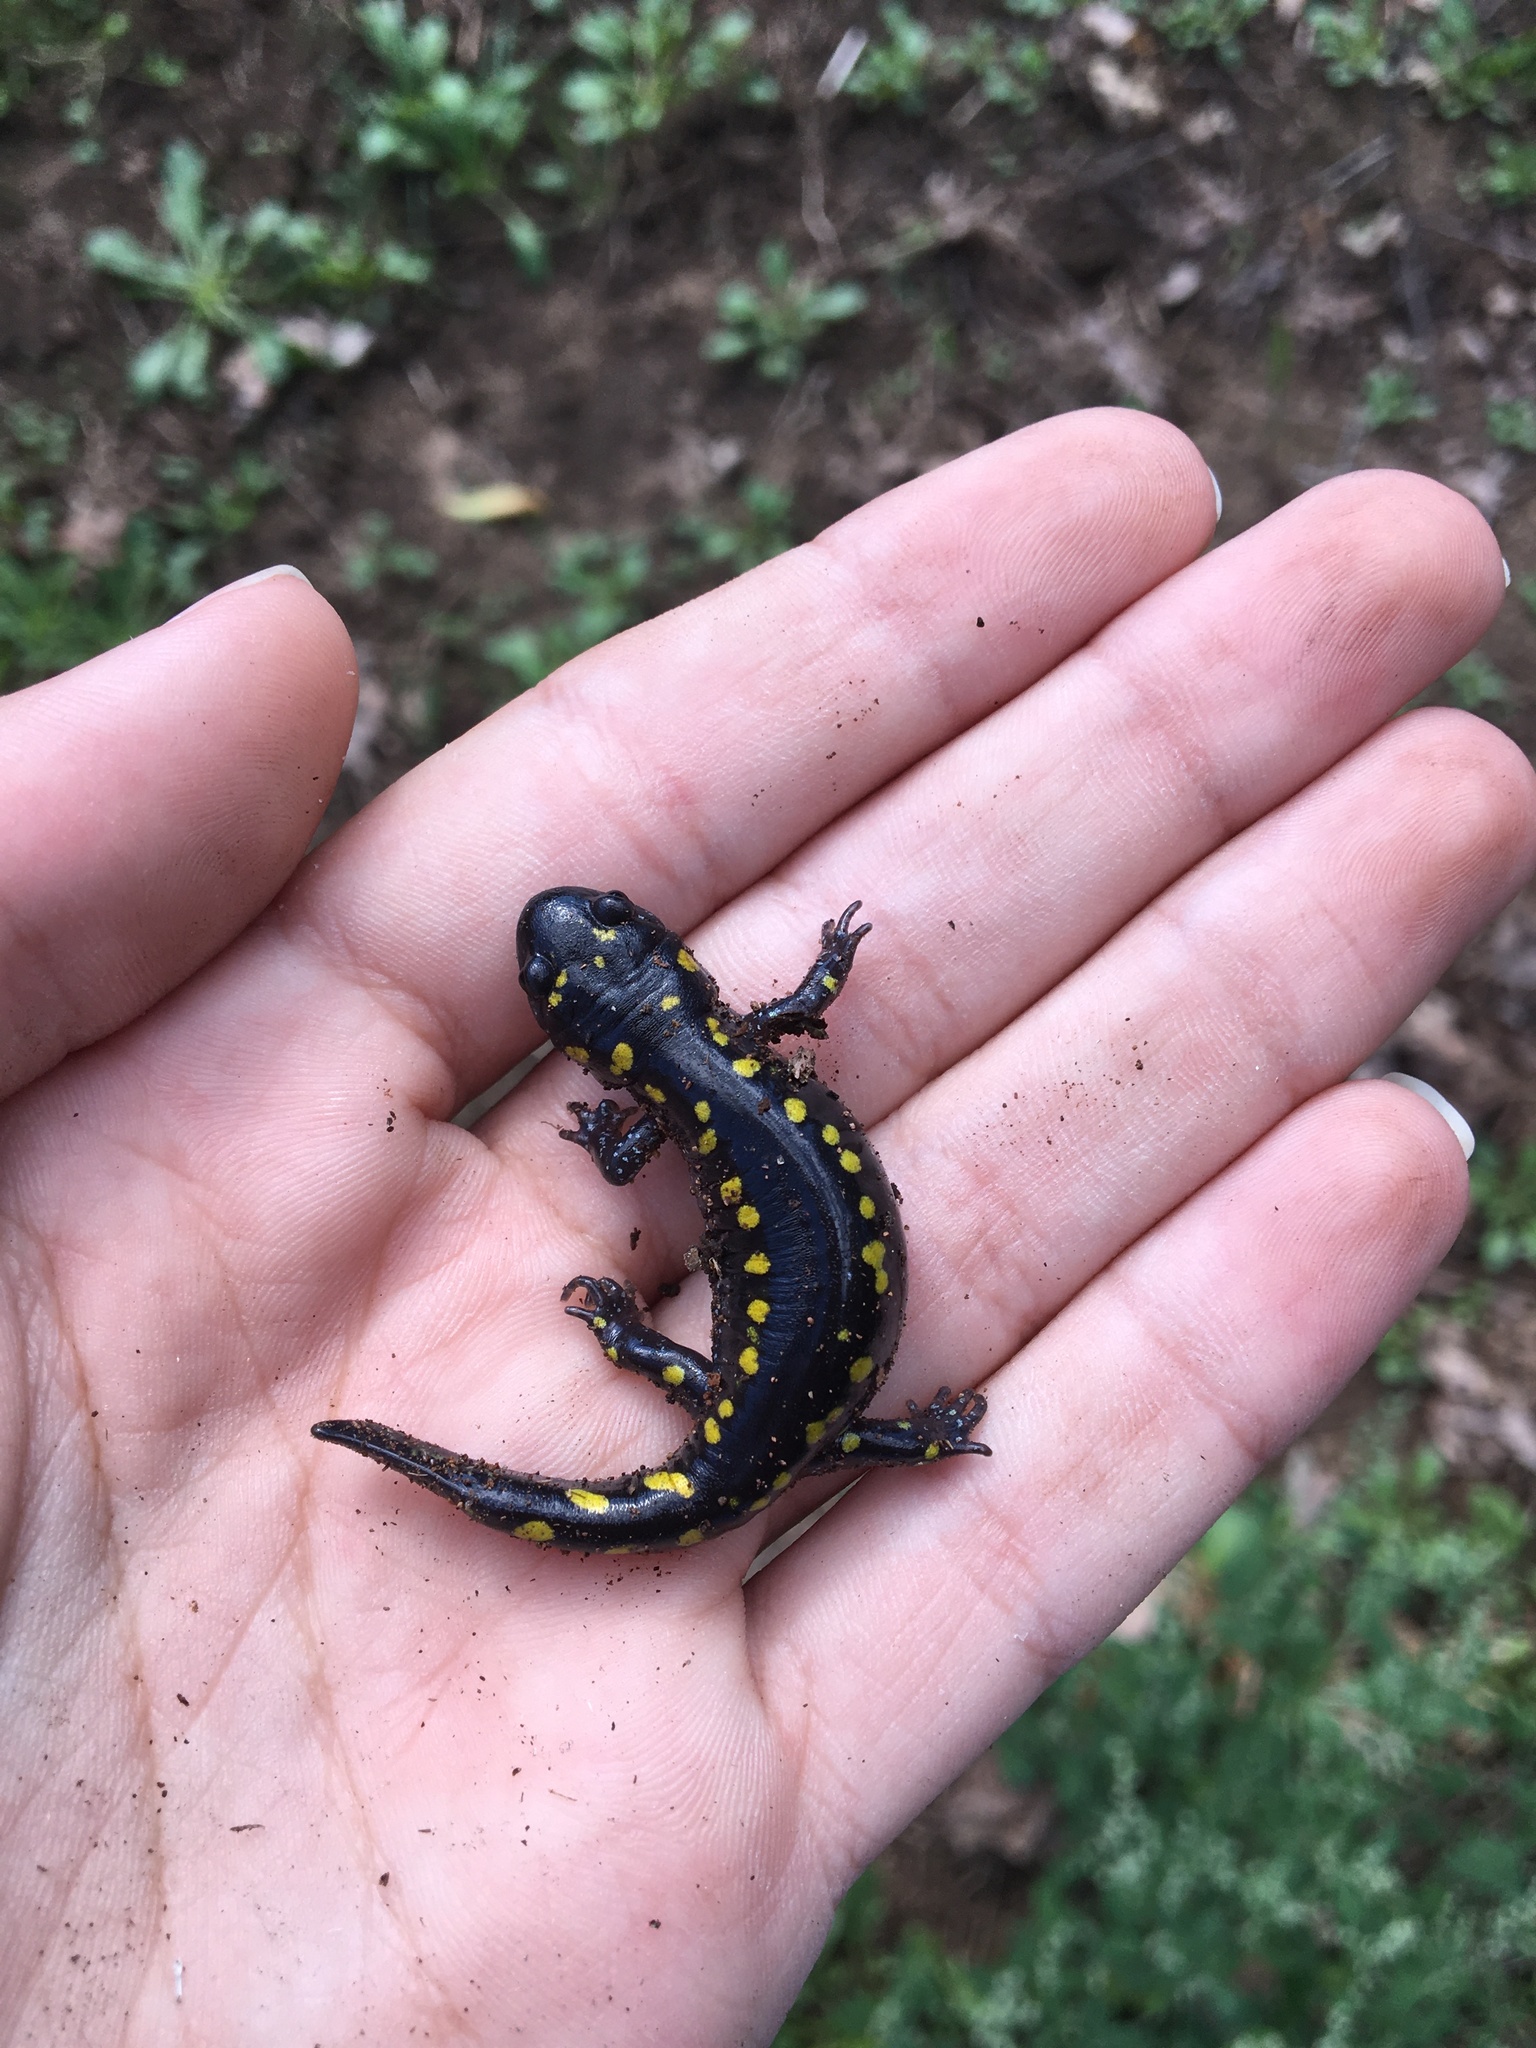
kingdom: Animalia
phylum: Chordata
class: Amphibia
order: Caudata
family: Ambystomatidae
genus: Ambystoma
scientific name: Ambystoma maculatum
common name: Spotted salamander
